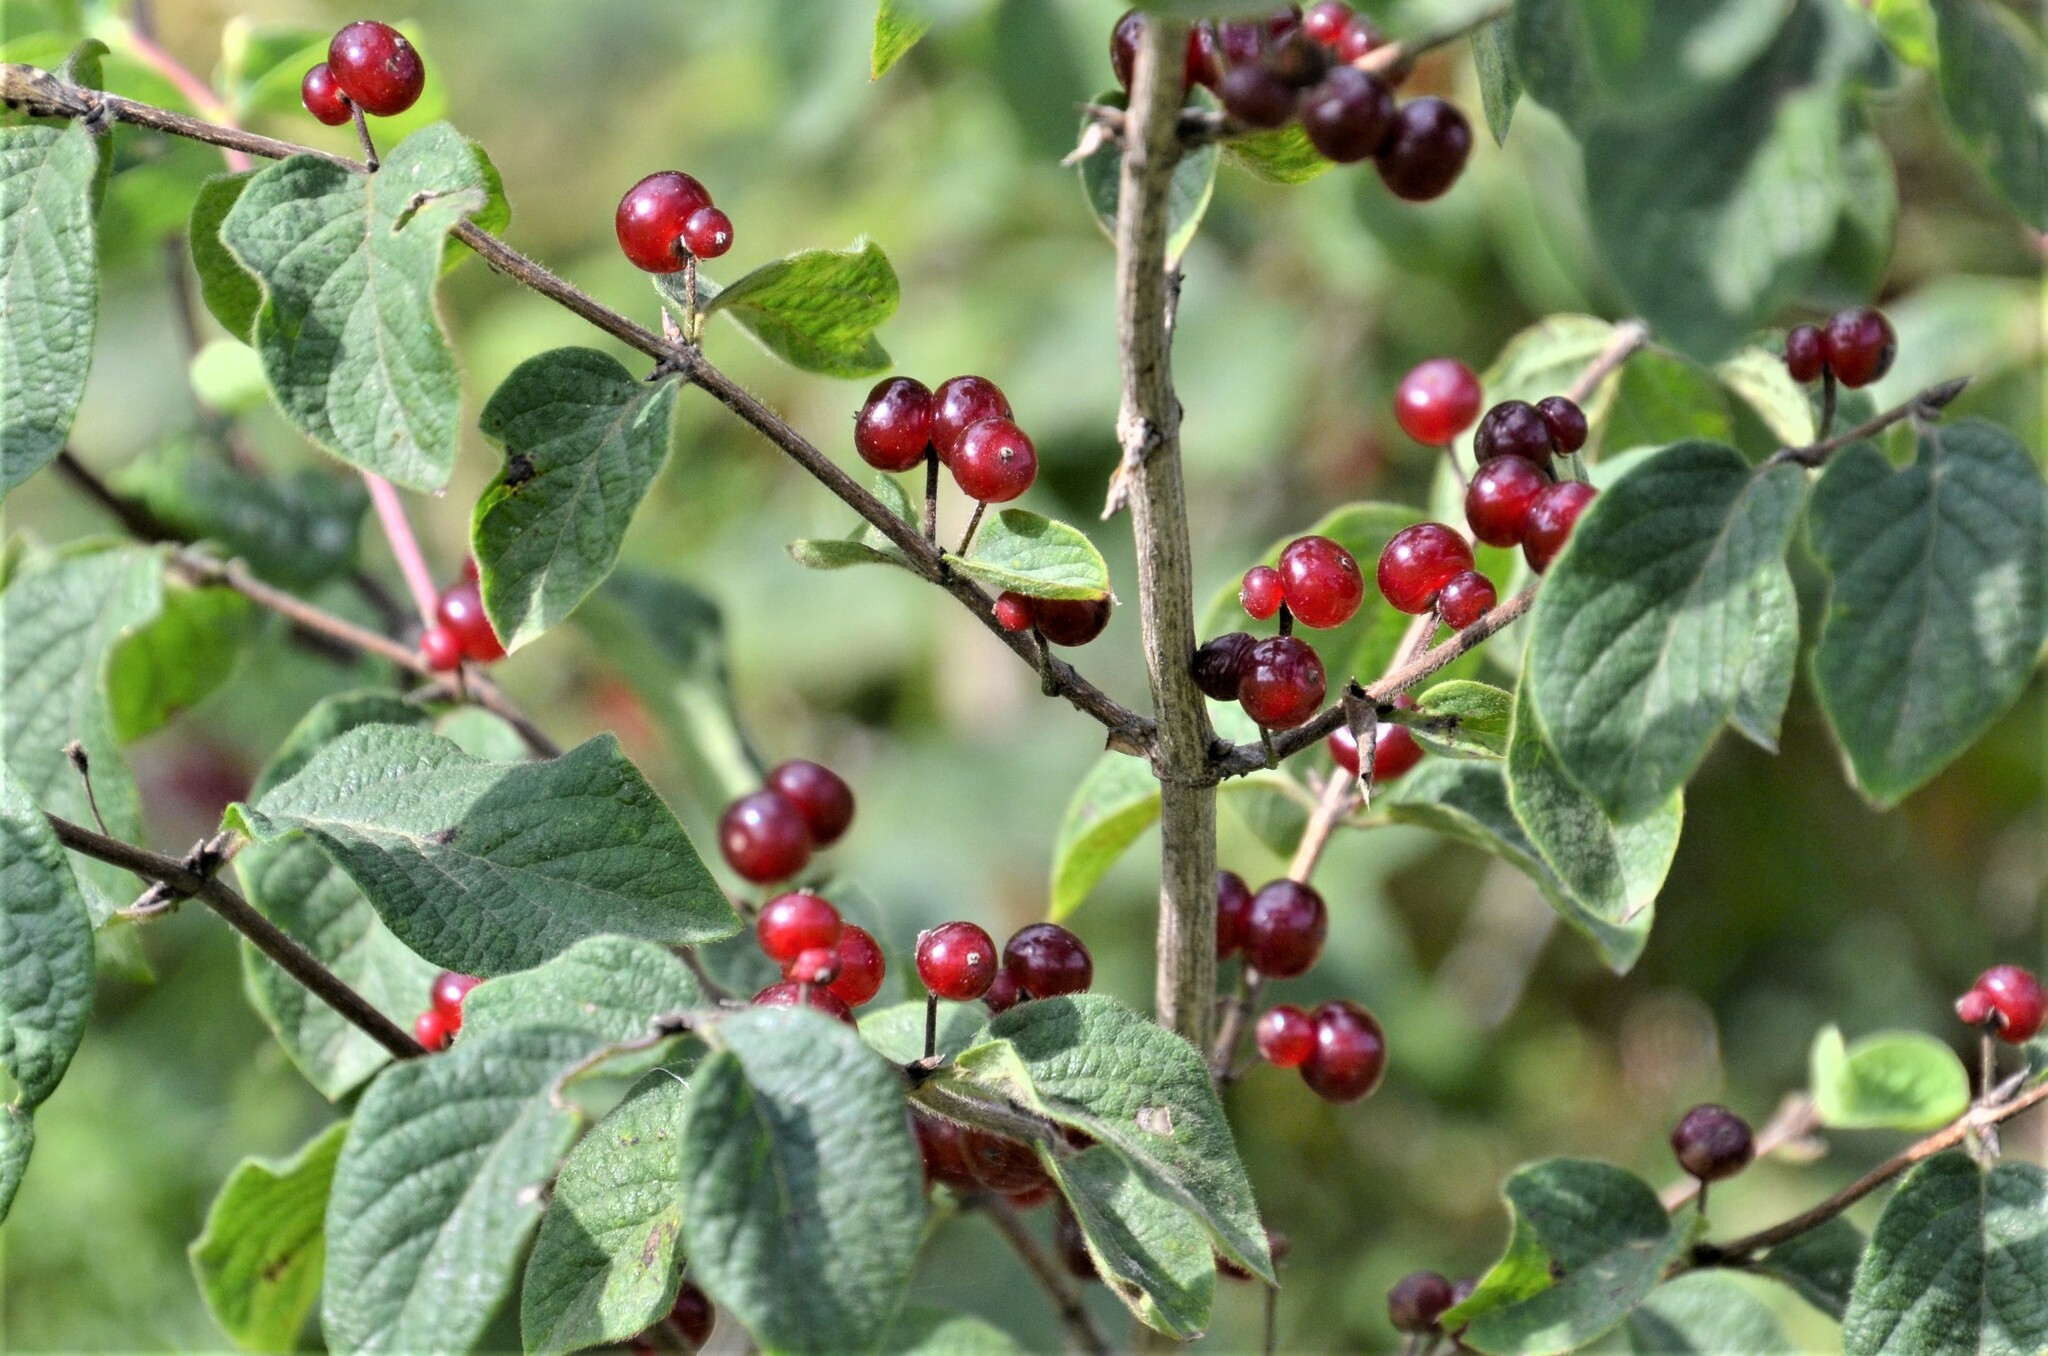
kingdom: Plantae
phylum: Tracheophyta
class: Magnoliopsida
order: Dipsacales
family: Caprifoliaceae
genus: Lonicera
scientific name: Lonicera xylosteum
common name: Fly honeysuckle
